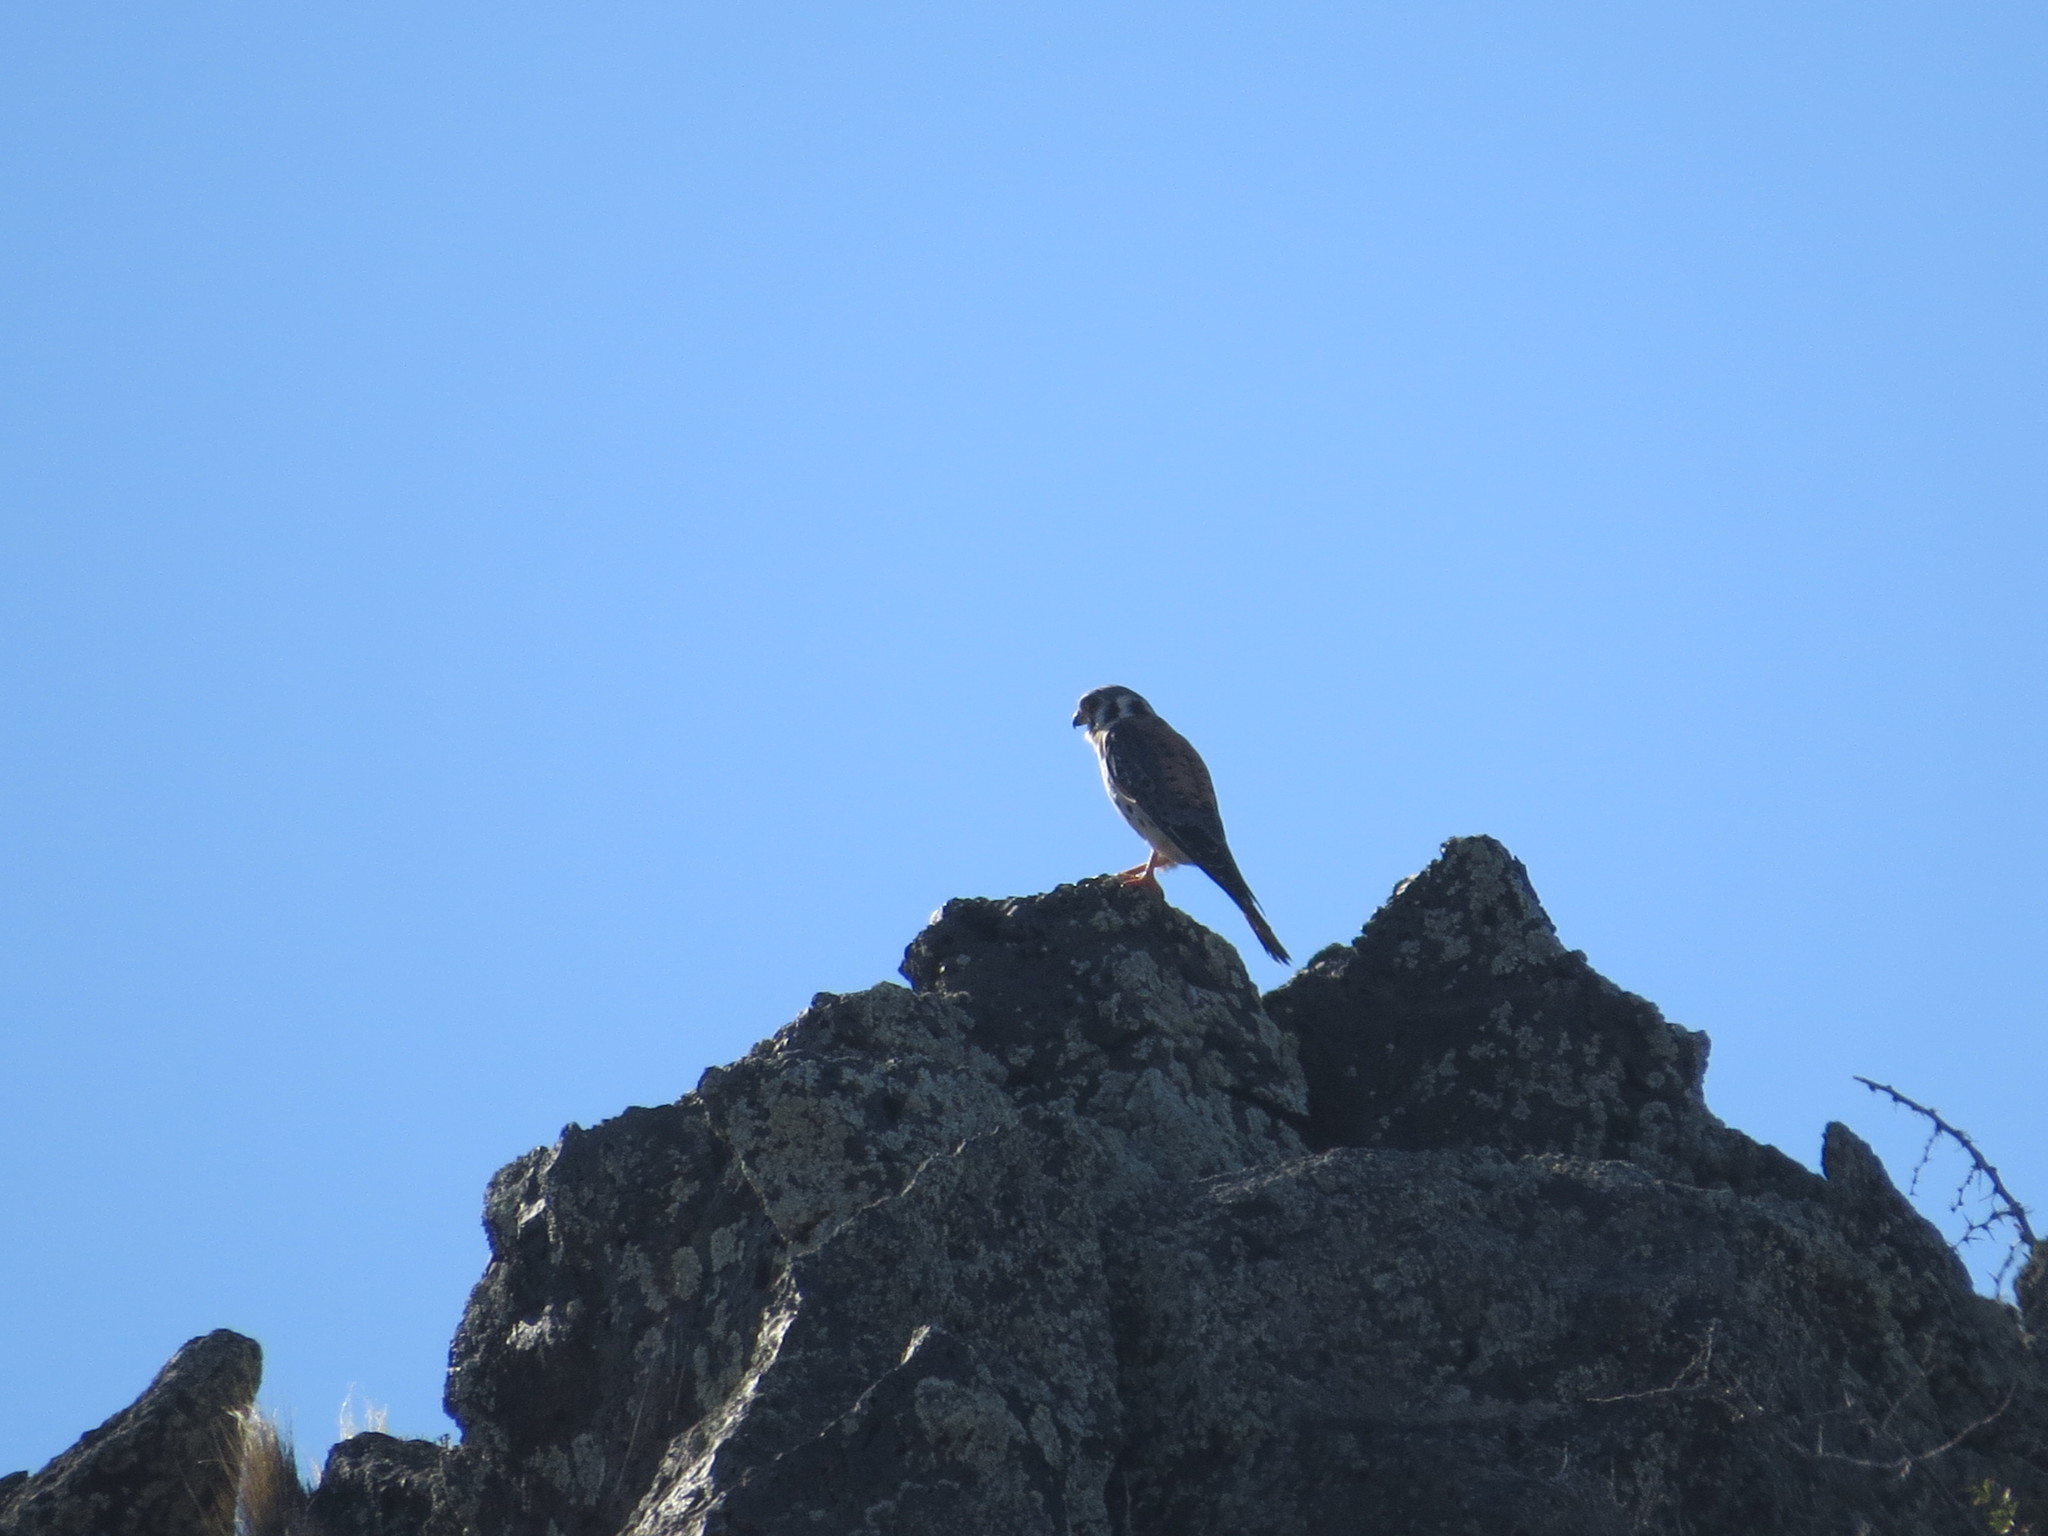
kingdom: Animalia
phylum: Chordata
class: Aves
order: Falconiformes
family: Falconidae
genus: Falco
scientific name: Falco sparverius
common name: American kestrel
